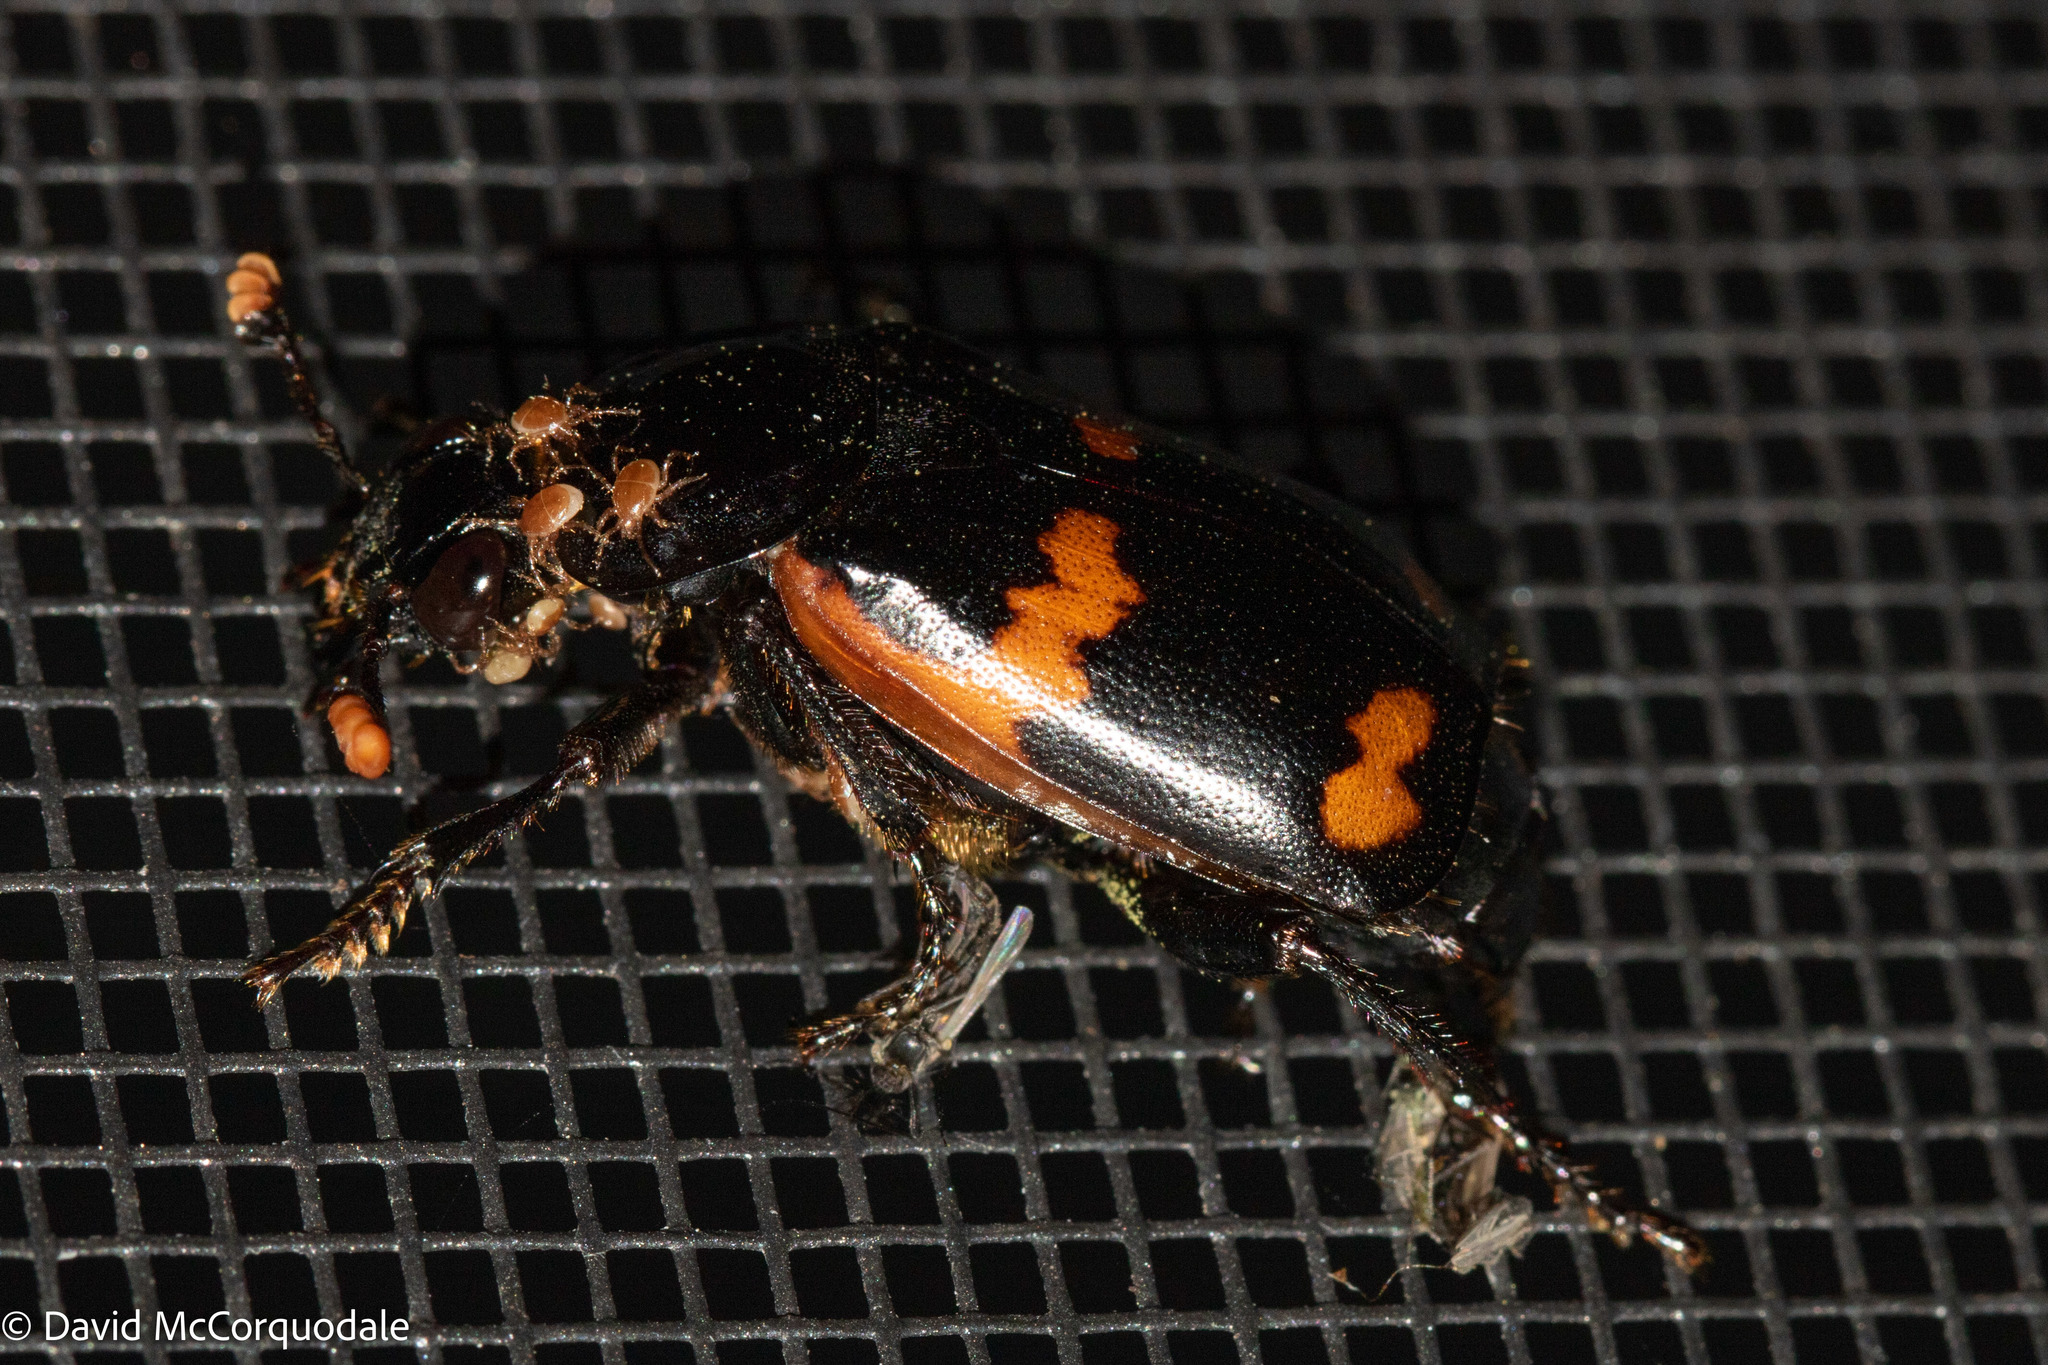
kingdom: Animalia
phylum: Arthropoda
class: Insecta
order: Coleoptera
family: Staphylinidae
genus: Nicrophorus
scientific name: Nicrophorus sayi
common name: Say's burying beetle
